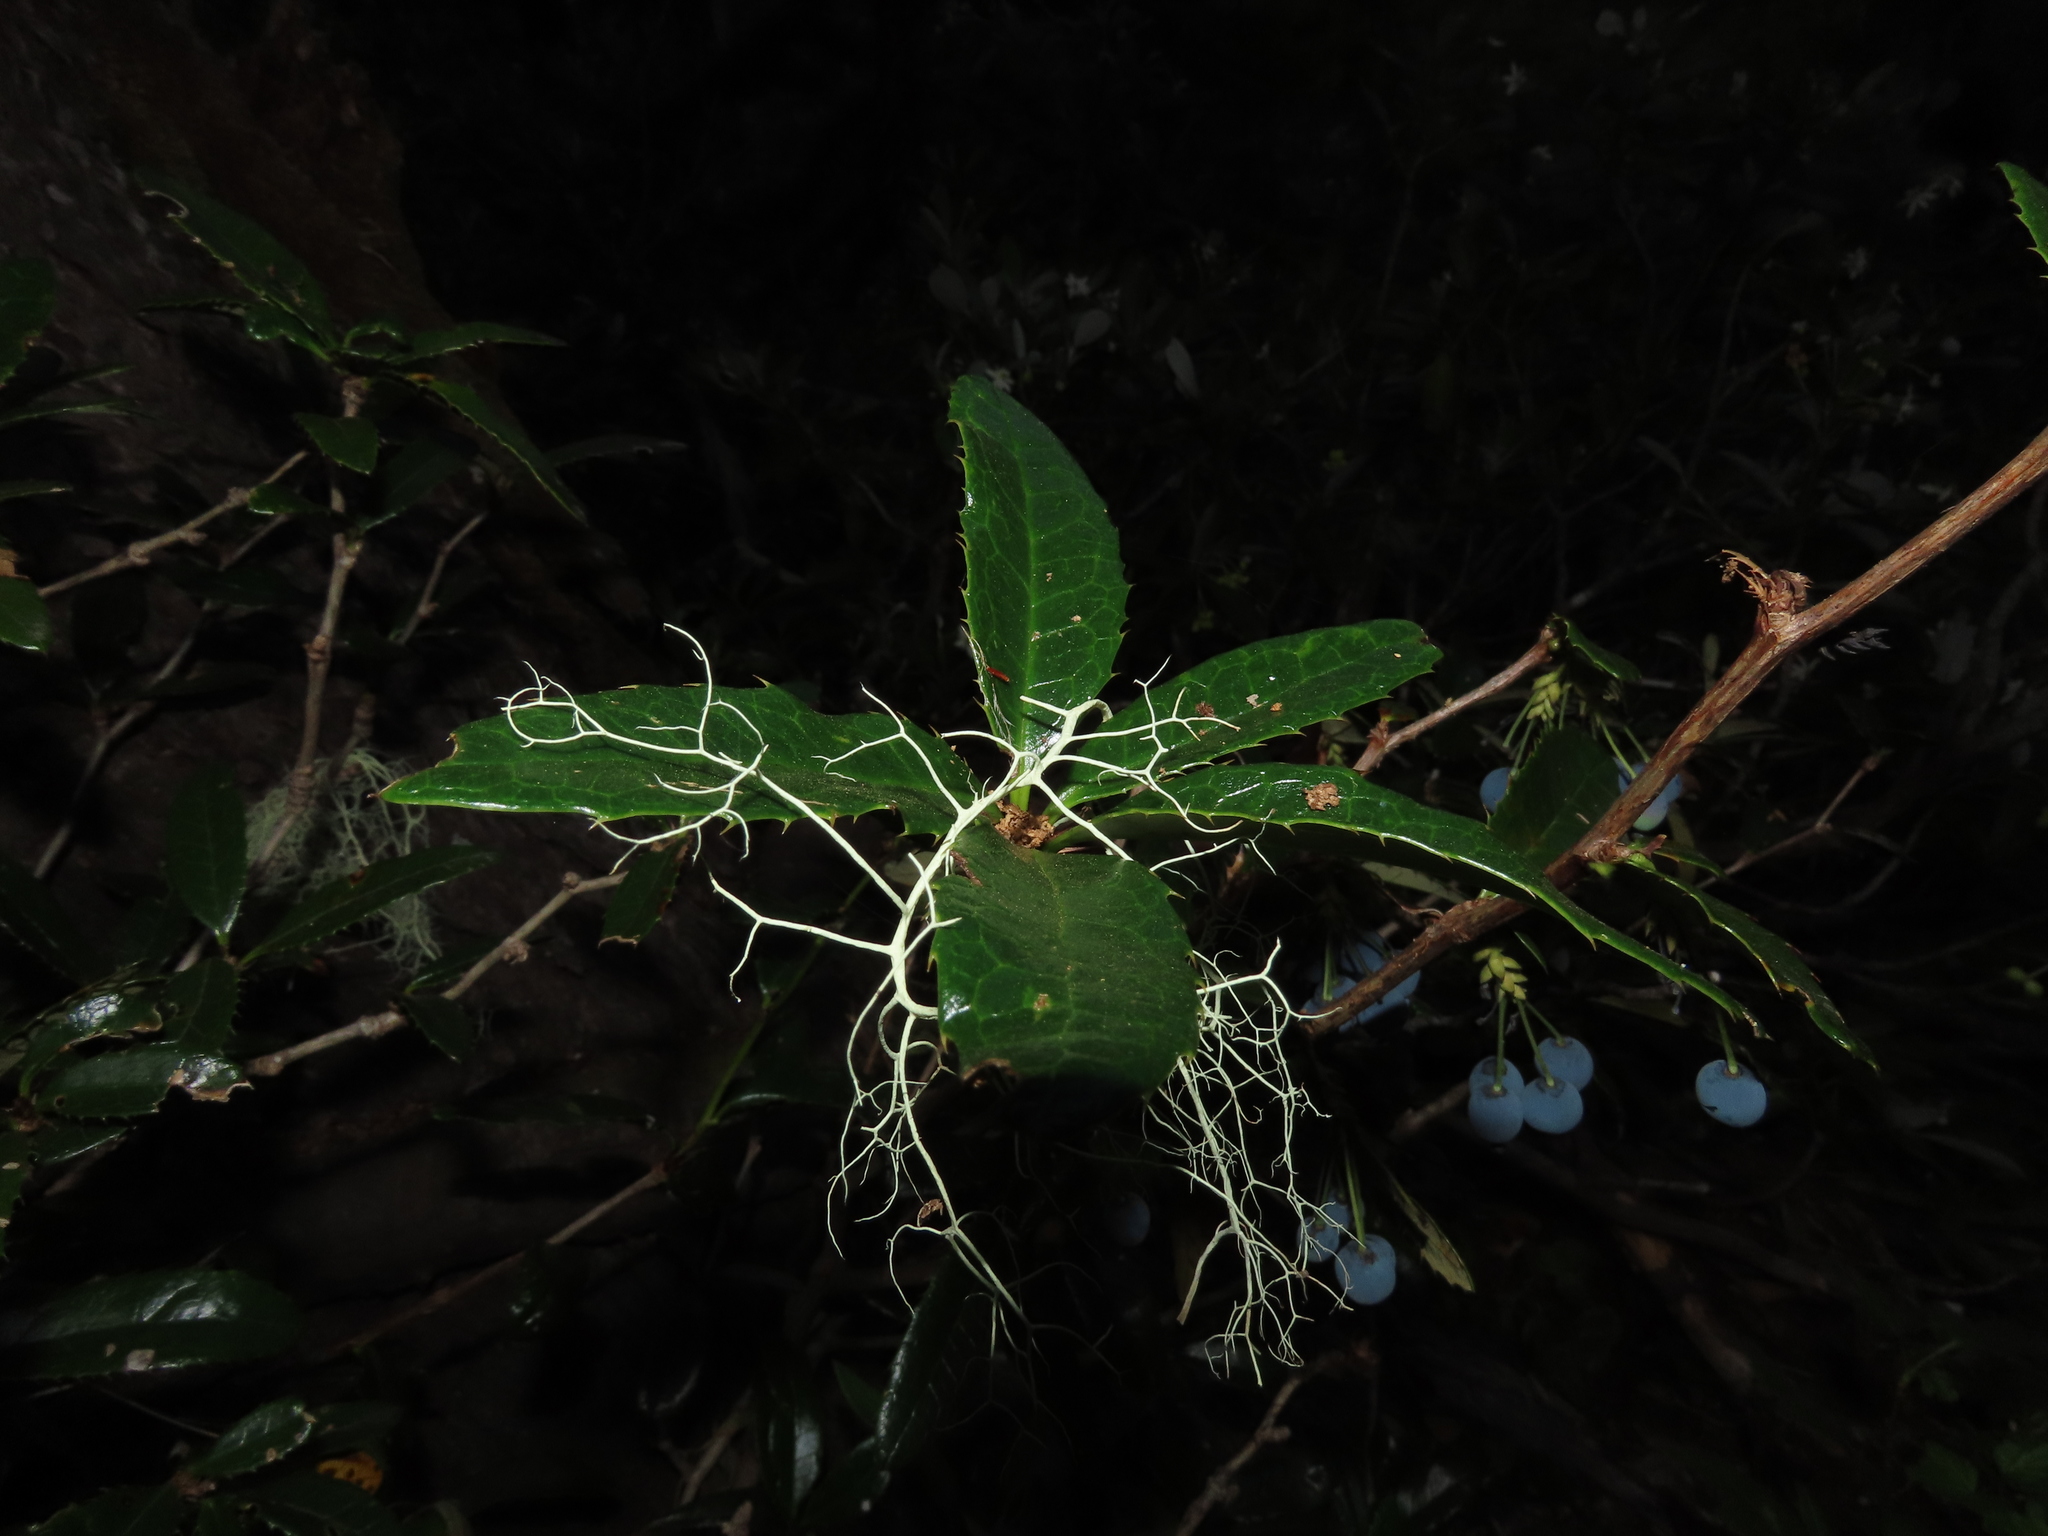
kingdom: Plantae
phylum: Tracheophyta
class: Magnoliopsida
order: Ranunculales
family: Berberidaceae
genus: Berberis
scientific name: Berberis pseudoilicifolia
